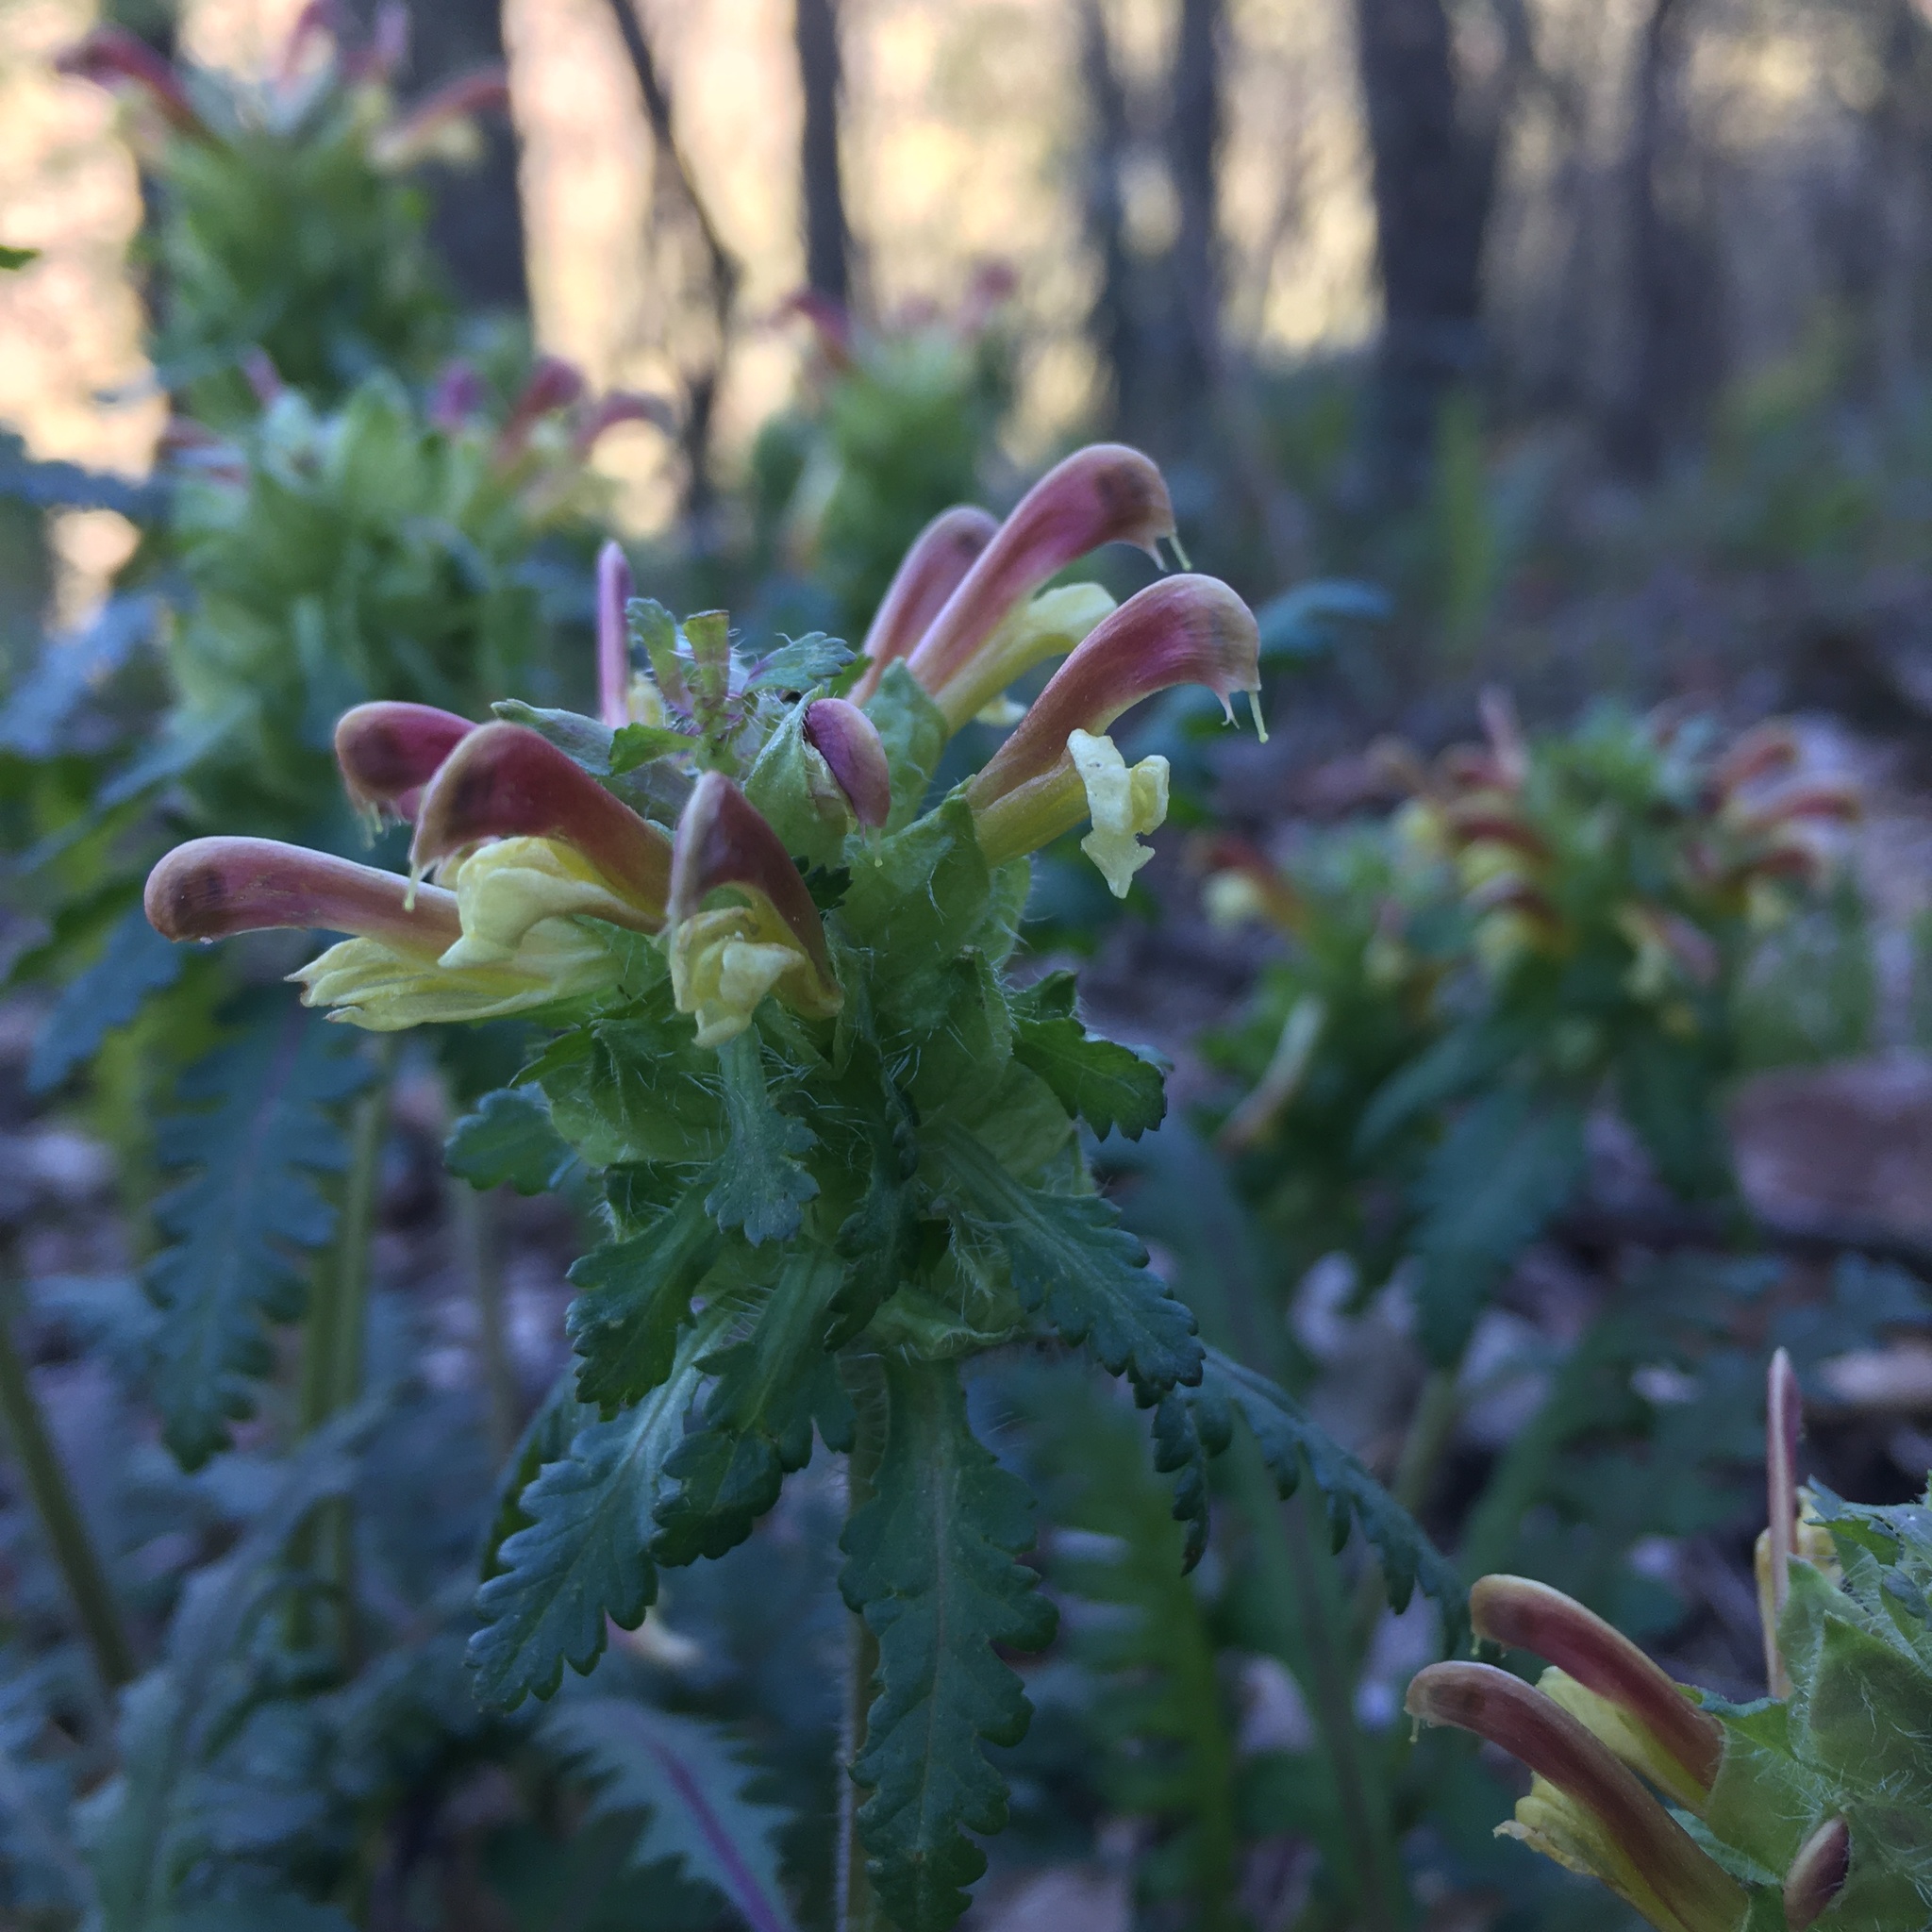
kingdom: Plantae
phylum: Tracheophyta
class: Magnoliopsida
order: Lamiales
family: Orobanchaceae
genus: Pedicularis
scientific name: Pedicularis canadensis
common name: Early lousewort
